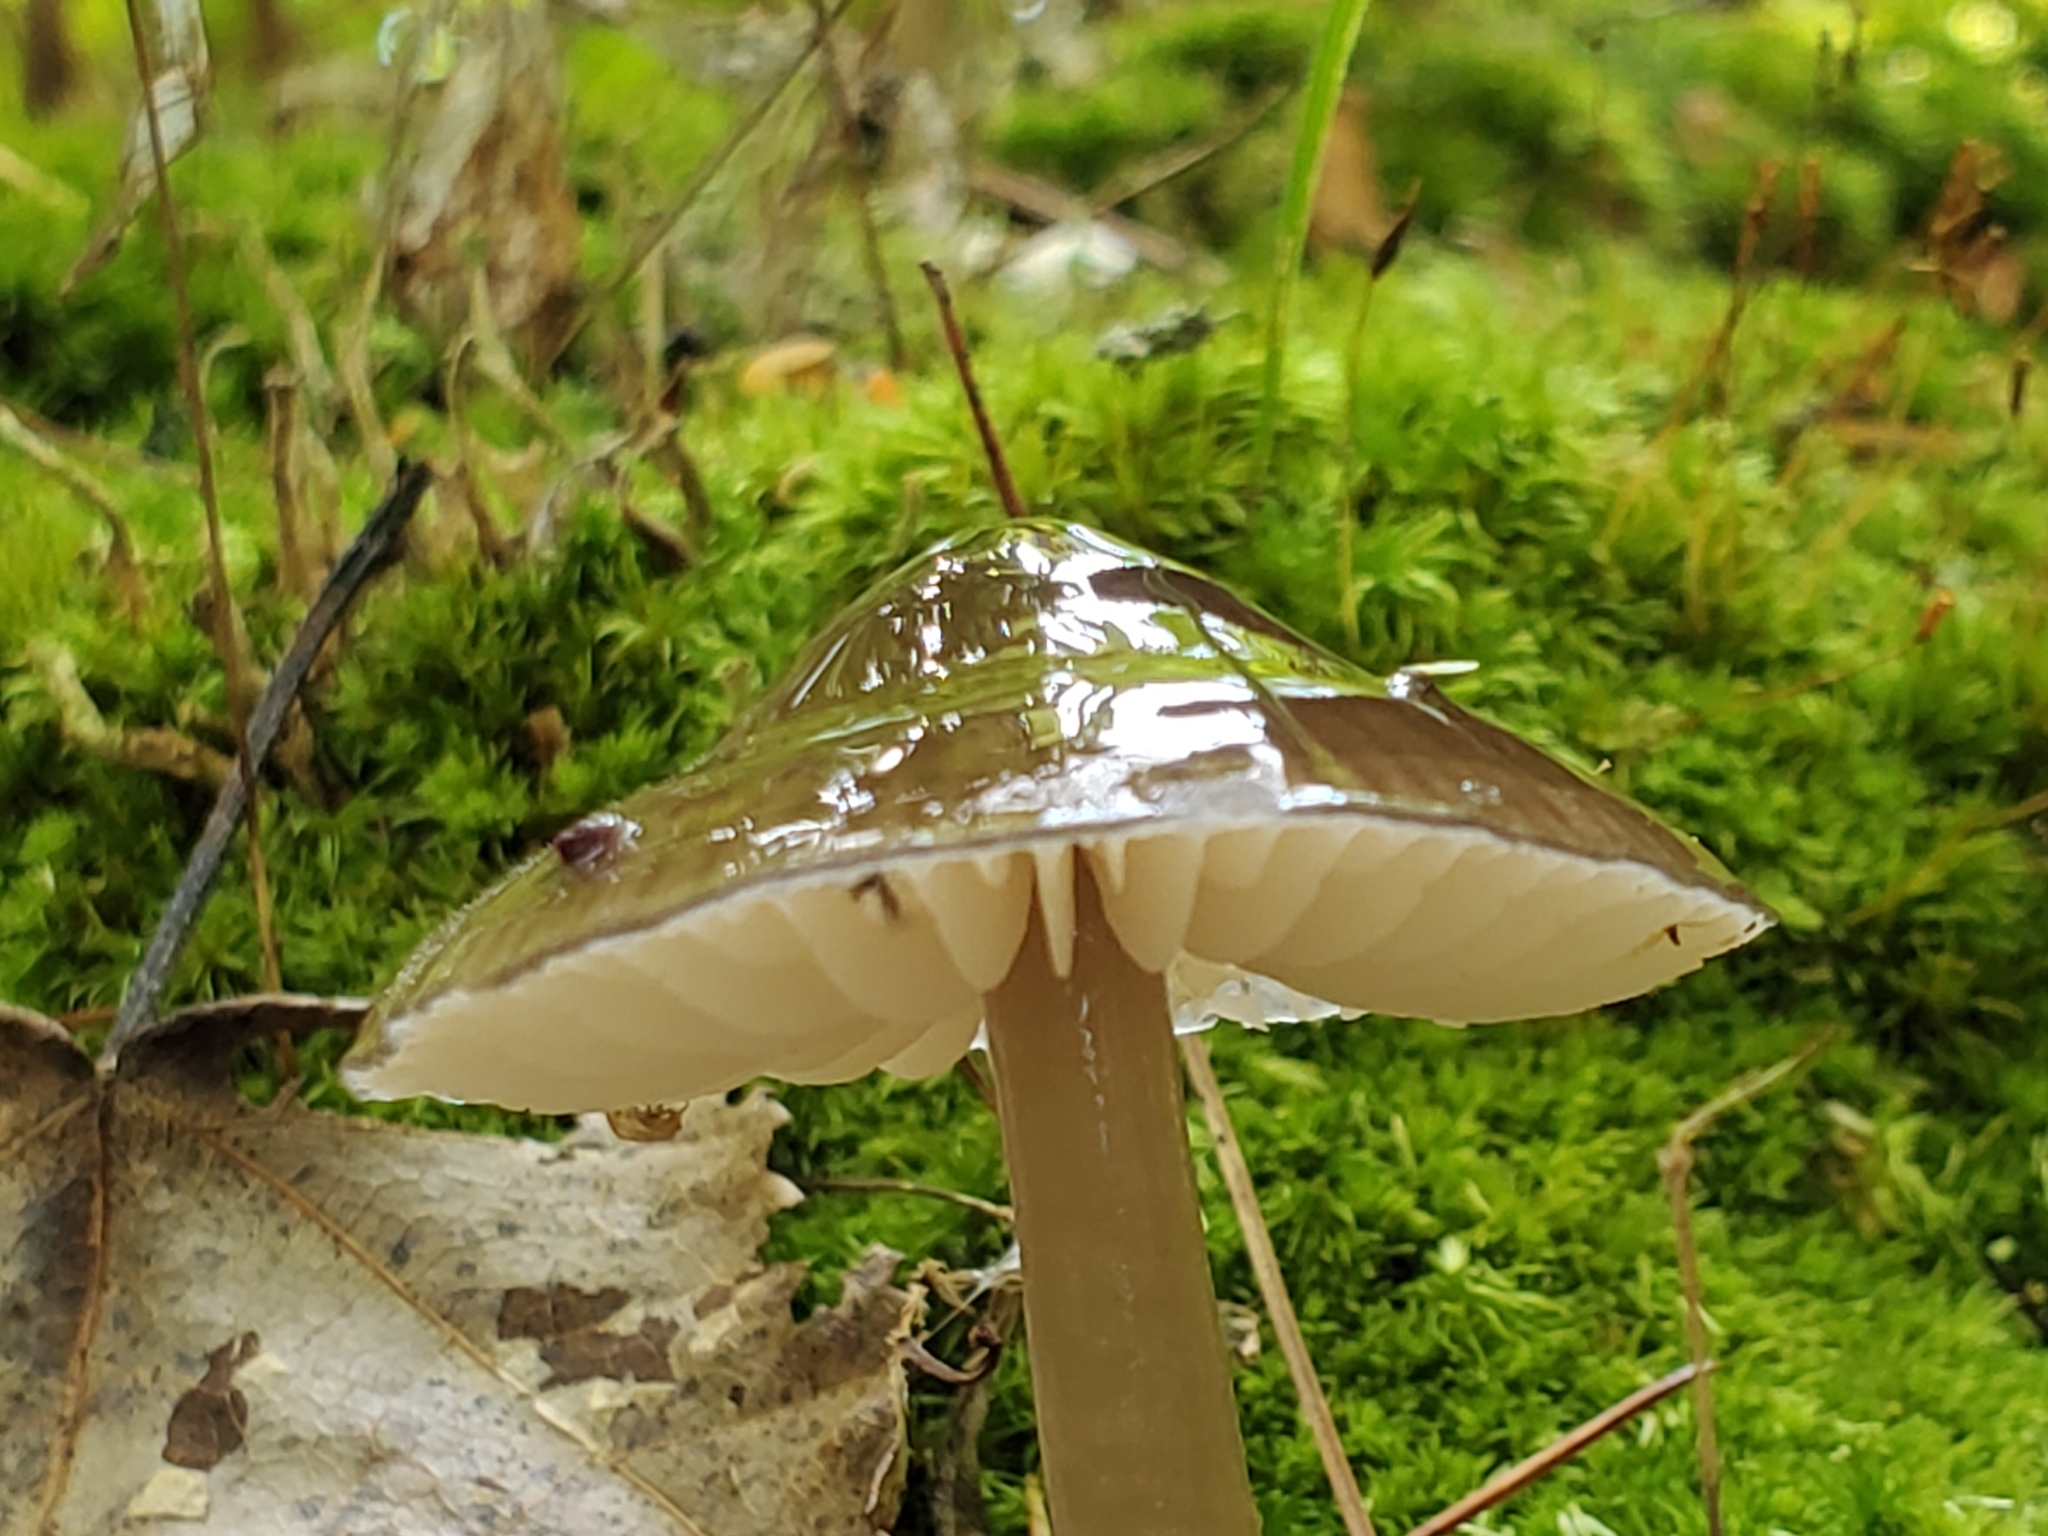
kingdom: Fungi
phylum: Basidiomycota
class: Agaricomycetes
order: Agaricales
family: Hygrophoraceae
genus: Gliophorus
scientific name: Gliophorus irrigatus
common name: Slimy waxcap
